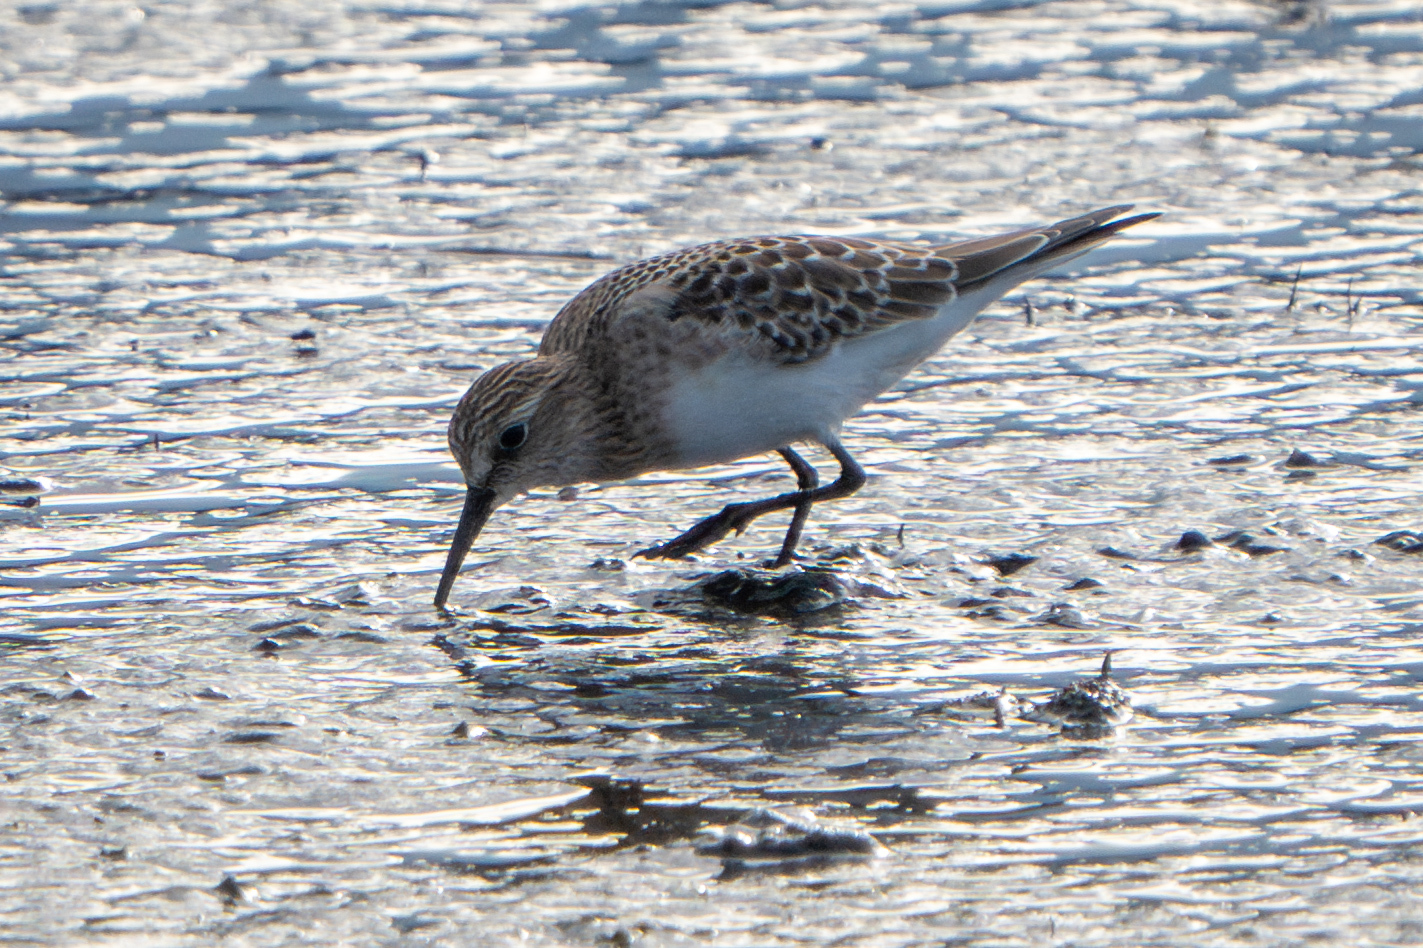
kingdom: Animalia
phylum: Chordata
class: Aves
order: Charadriiformes
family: Scolopacidae
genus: Calidris
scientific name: Calidris bairdii
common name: Baird's sandpiper
